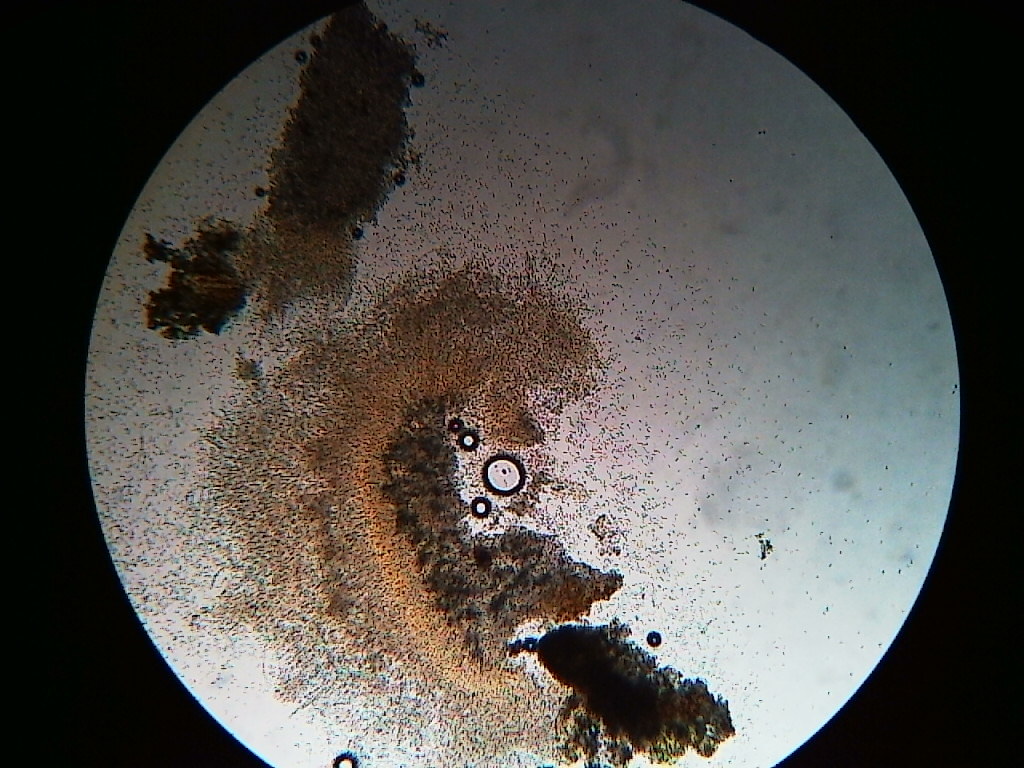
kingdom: Fungi
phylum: Ascomycota
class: Sordariomycetes
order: Hypocreales
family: Nectriaceae
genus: Nectria
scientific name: Nectria cinnabarina
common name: Coral spot
